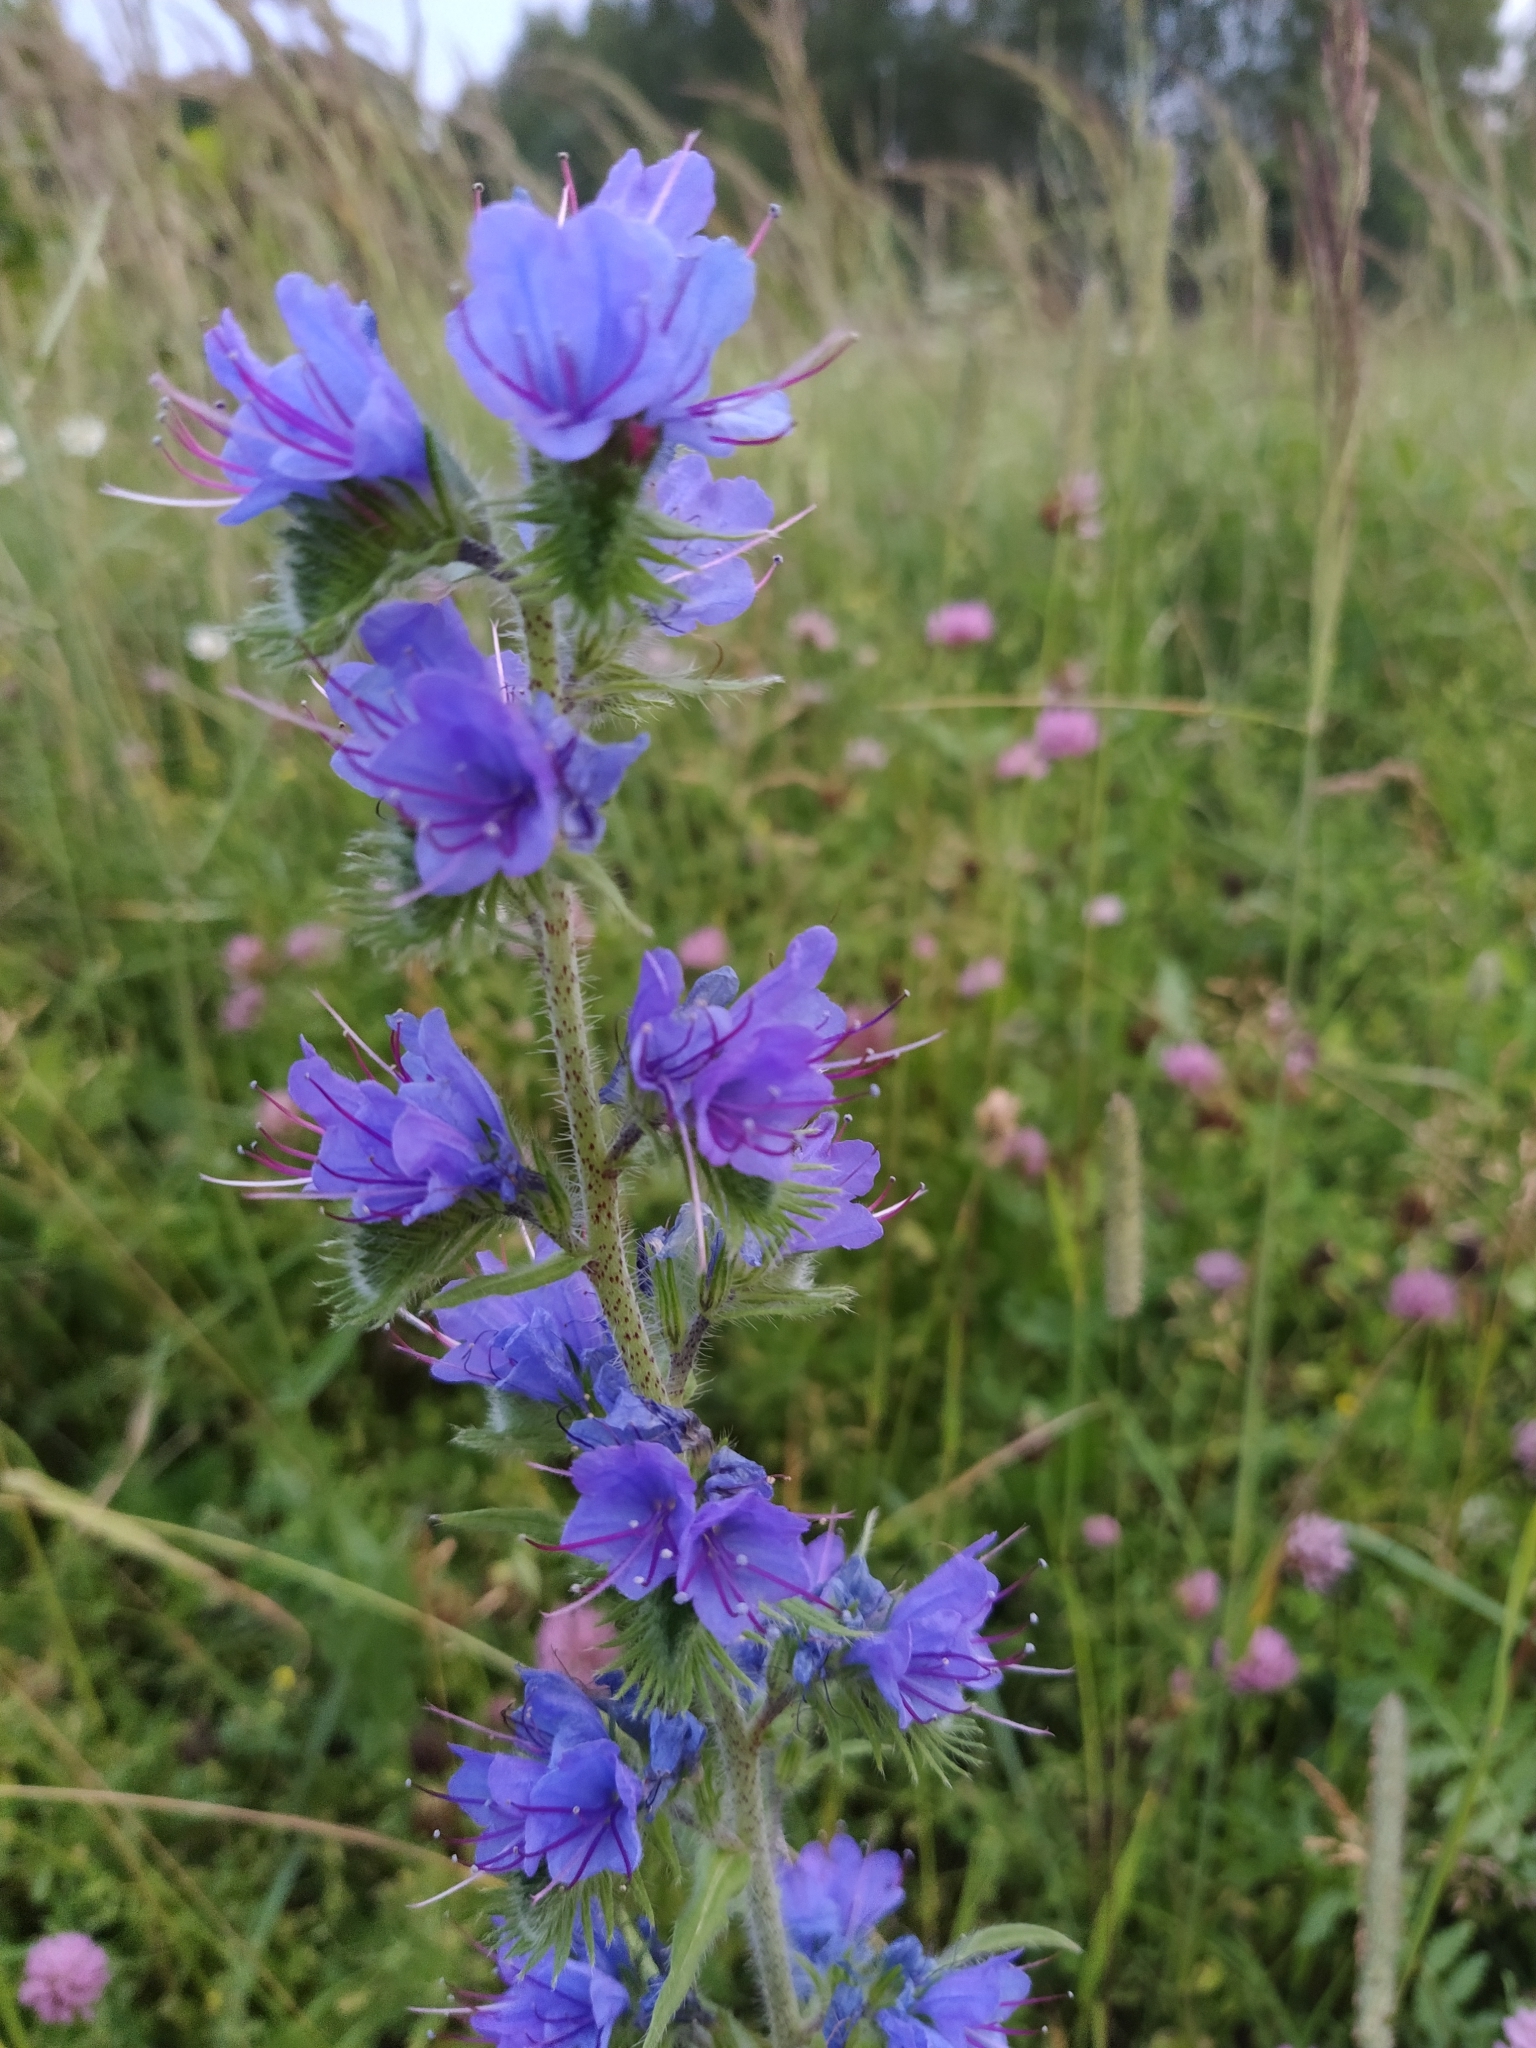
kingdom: Plantae
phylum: Tracheophyta
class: Magnoliopsida
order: Boraginales
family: Boraginaceae
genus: Echium
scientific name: Echium vulgare
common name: Common viper's bugloss
